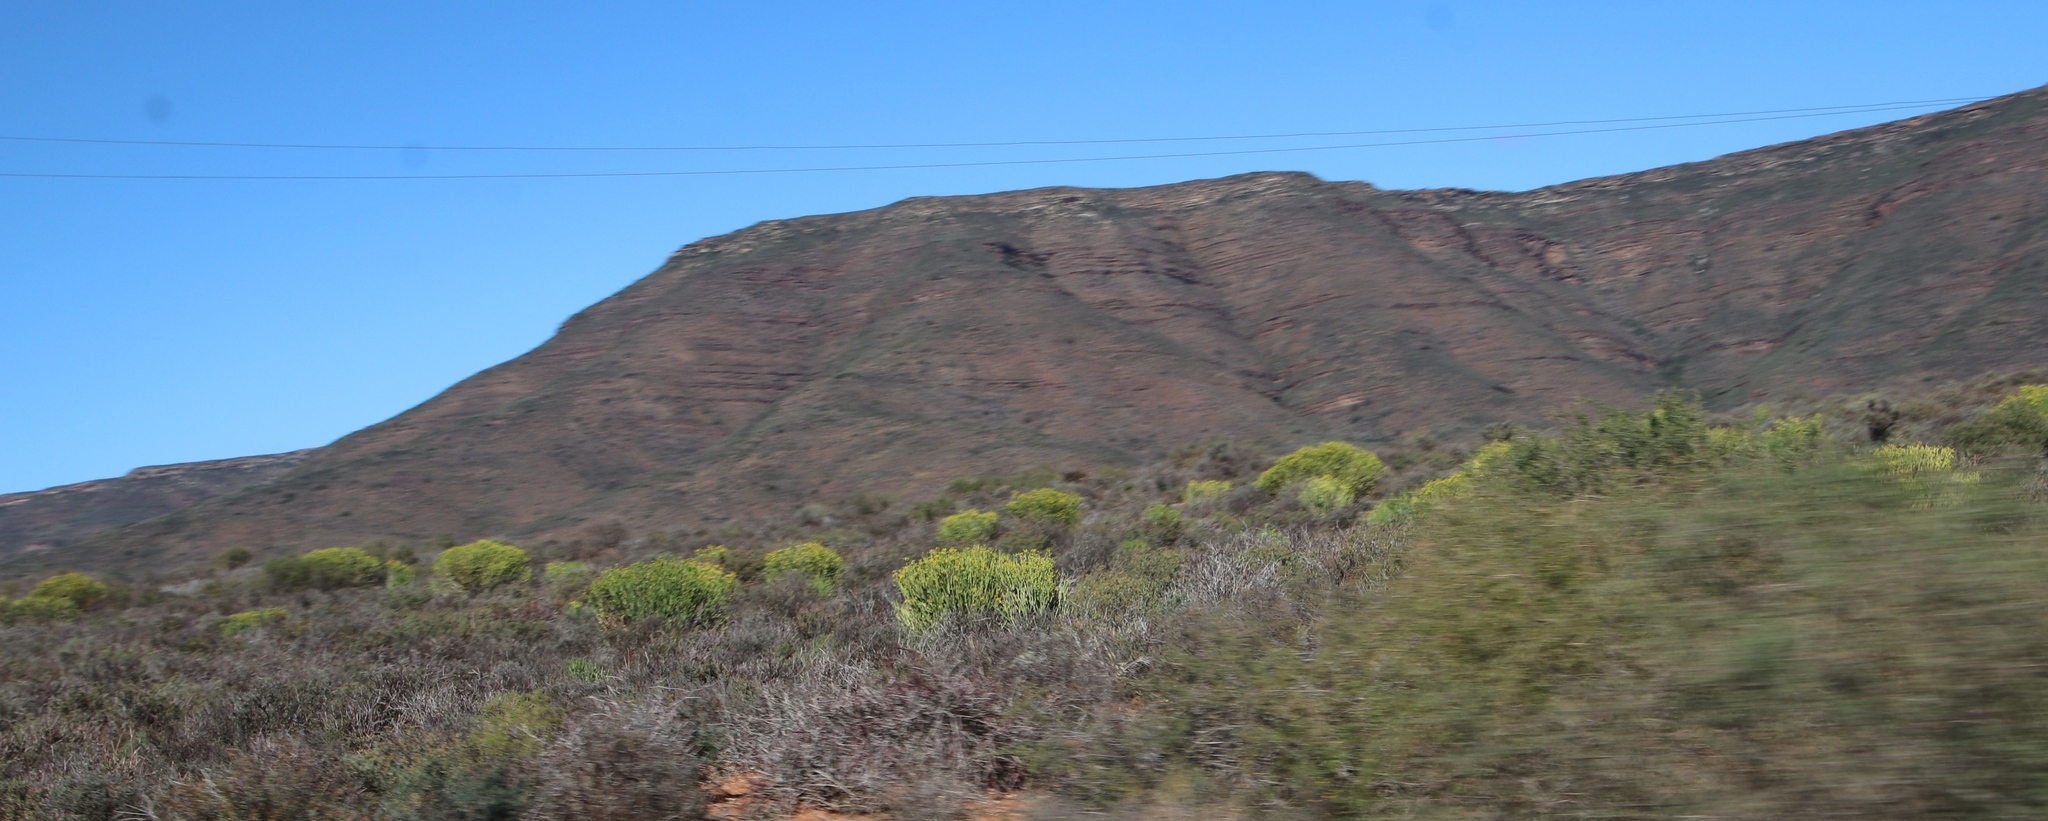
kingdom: Plantae
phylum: Tracheophyta
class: Magnoliopsida
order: Malpighiales
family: Euphorbiaceae
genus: Euphorbia
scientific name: Euphorbia mauritanica
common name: Jackal's-food
